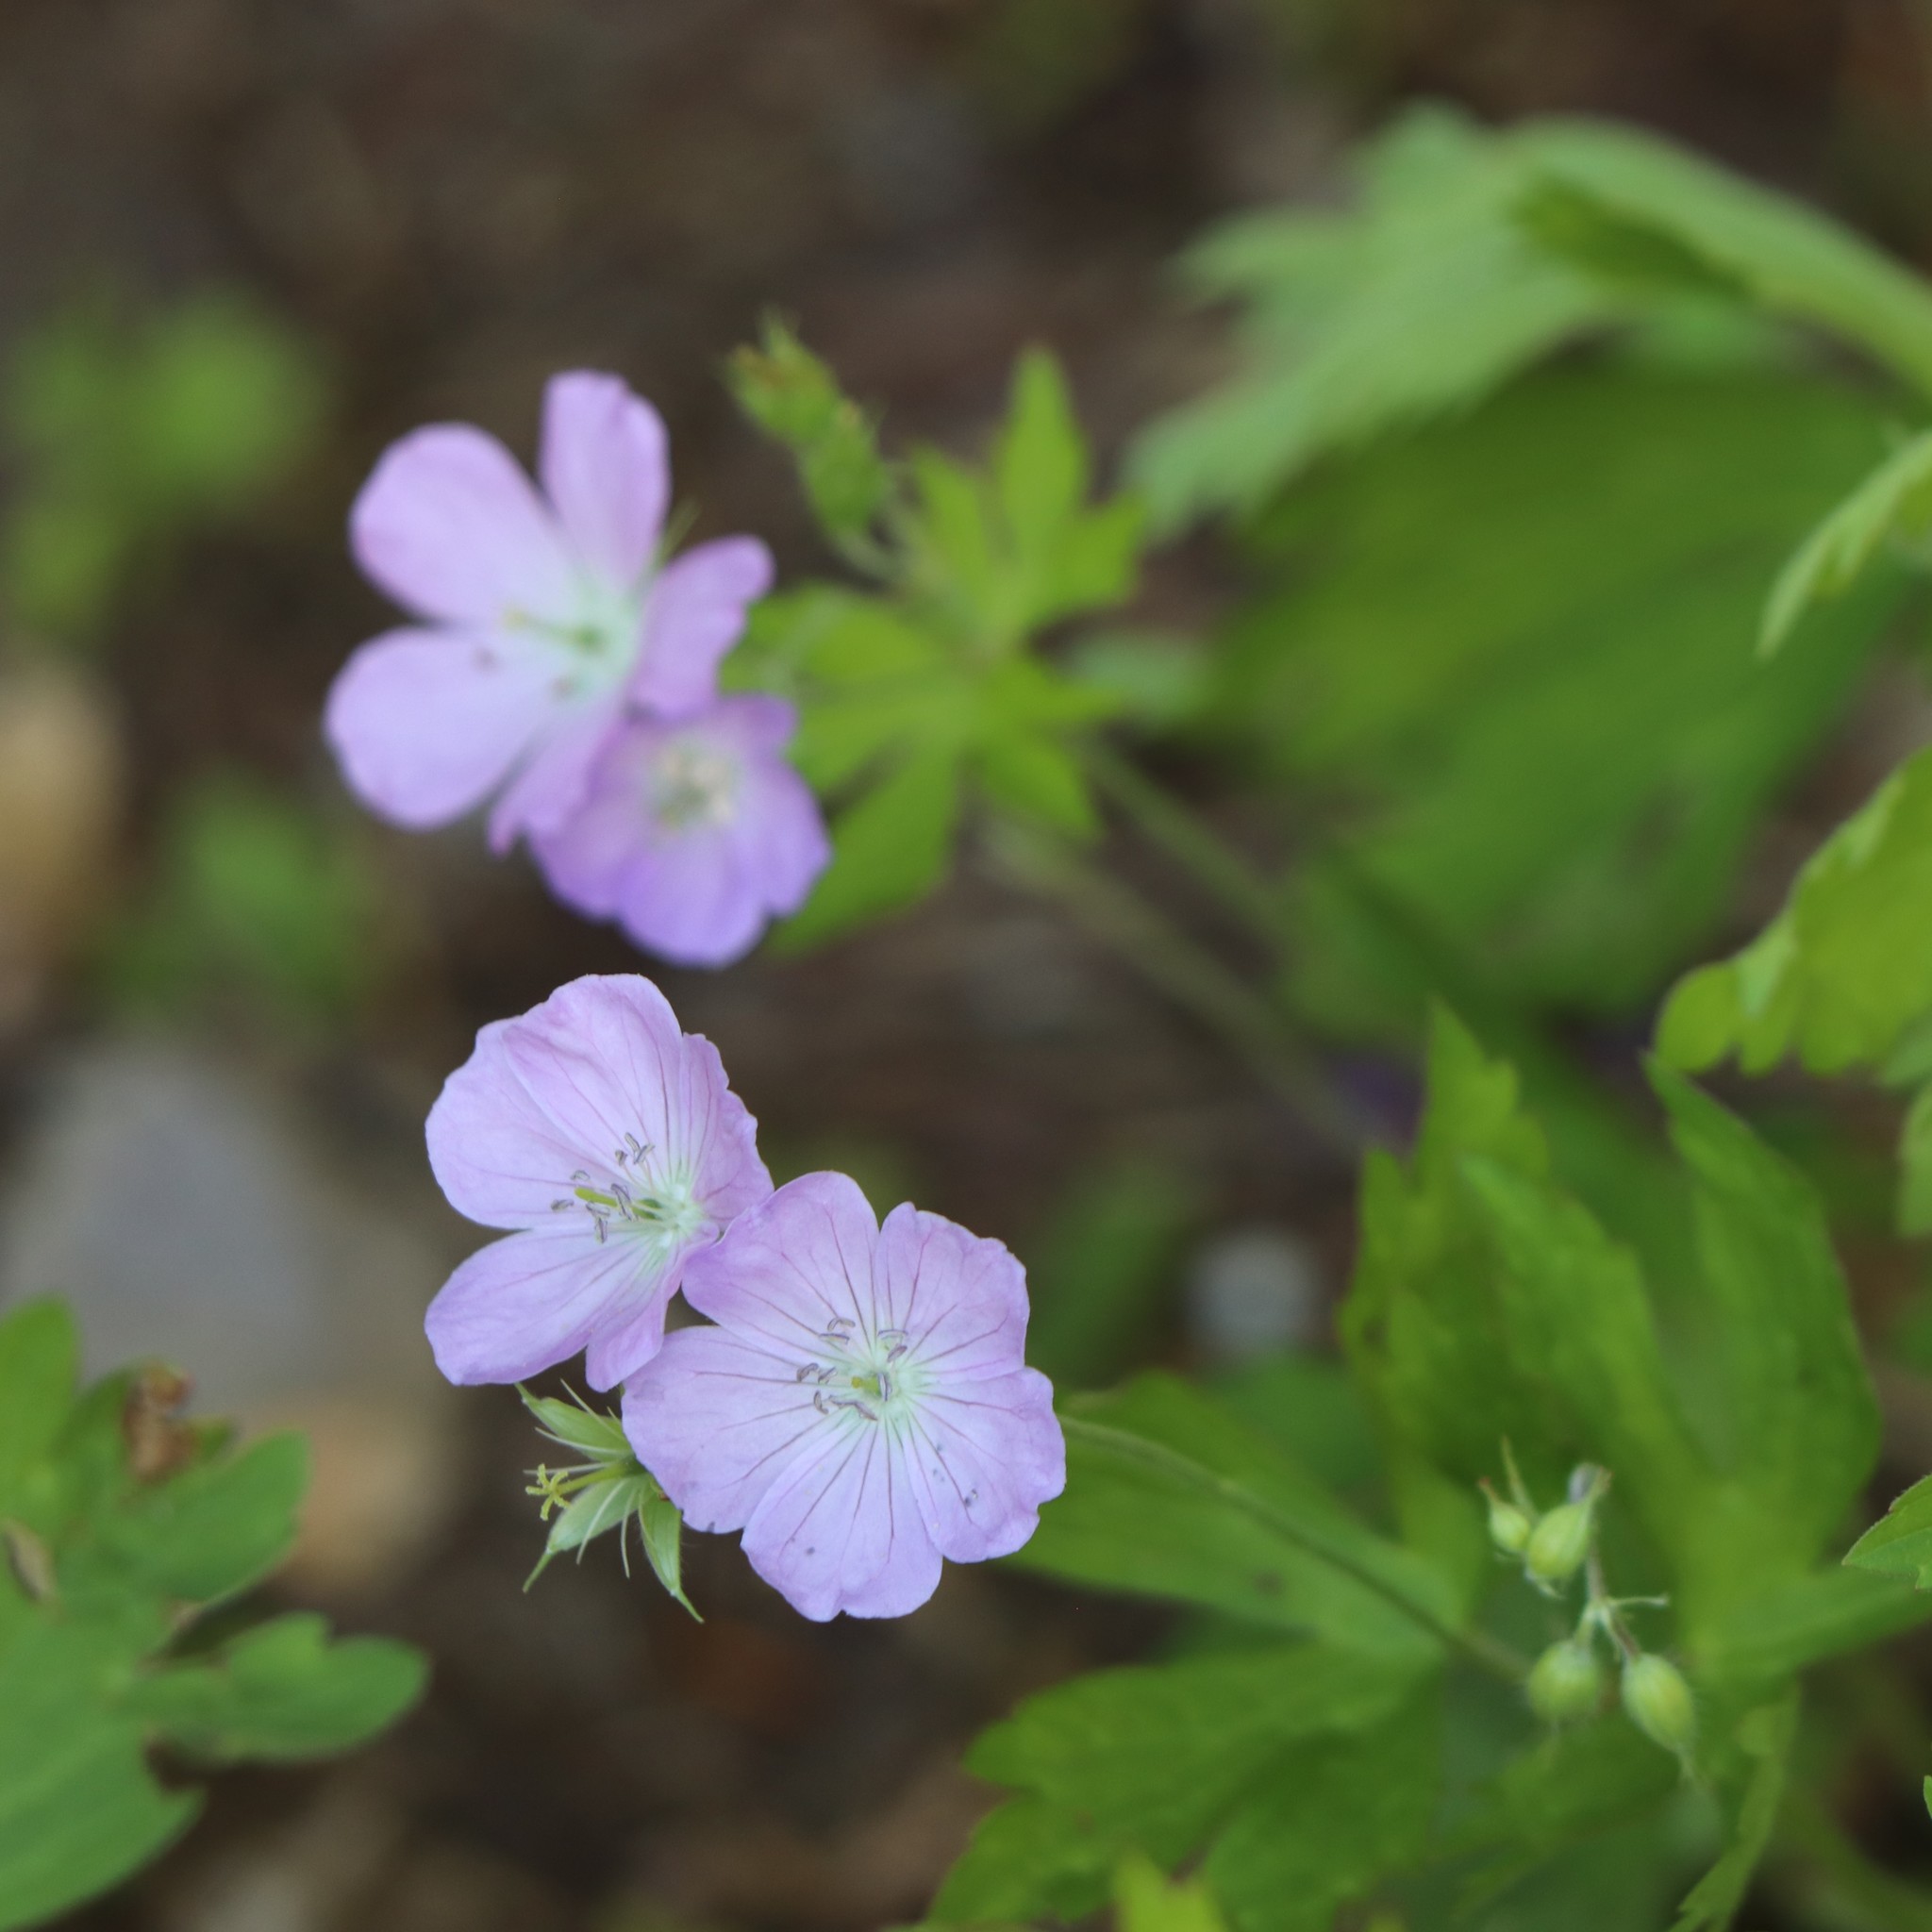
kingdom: Plantae
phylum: Tracheophyta
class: Magnoliopsida
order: Geraniales
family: Geraniaceae
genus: Geranium
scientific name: Geranium maculatum
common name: Spotted geranium
